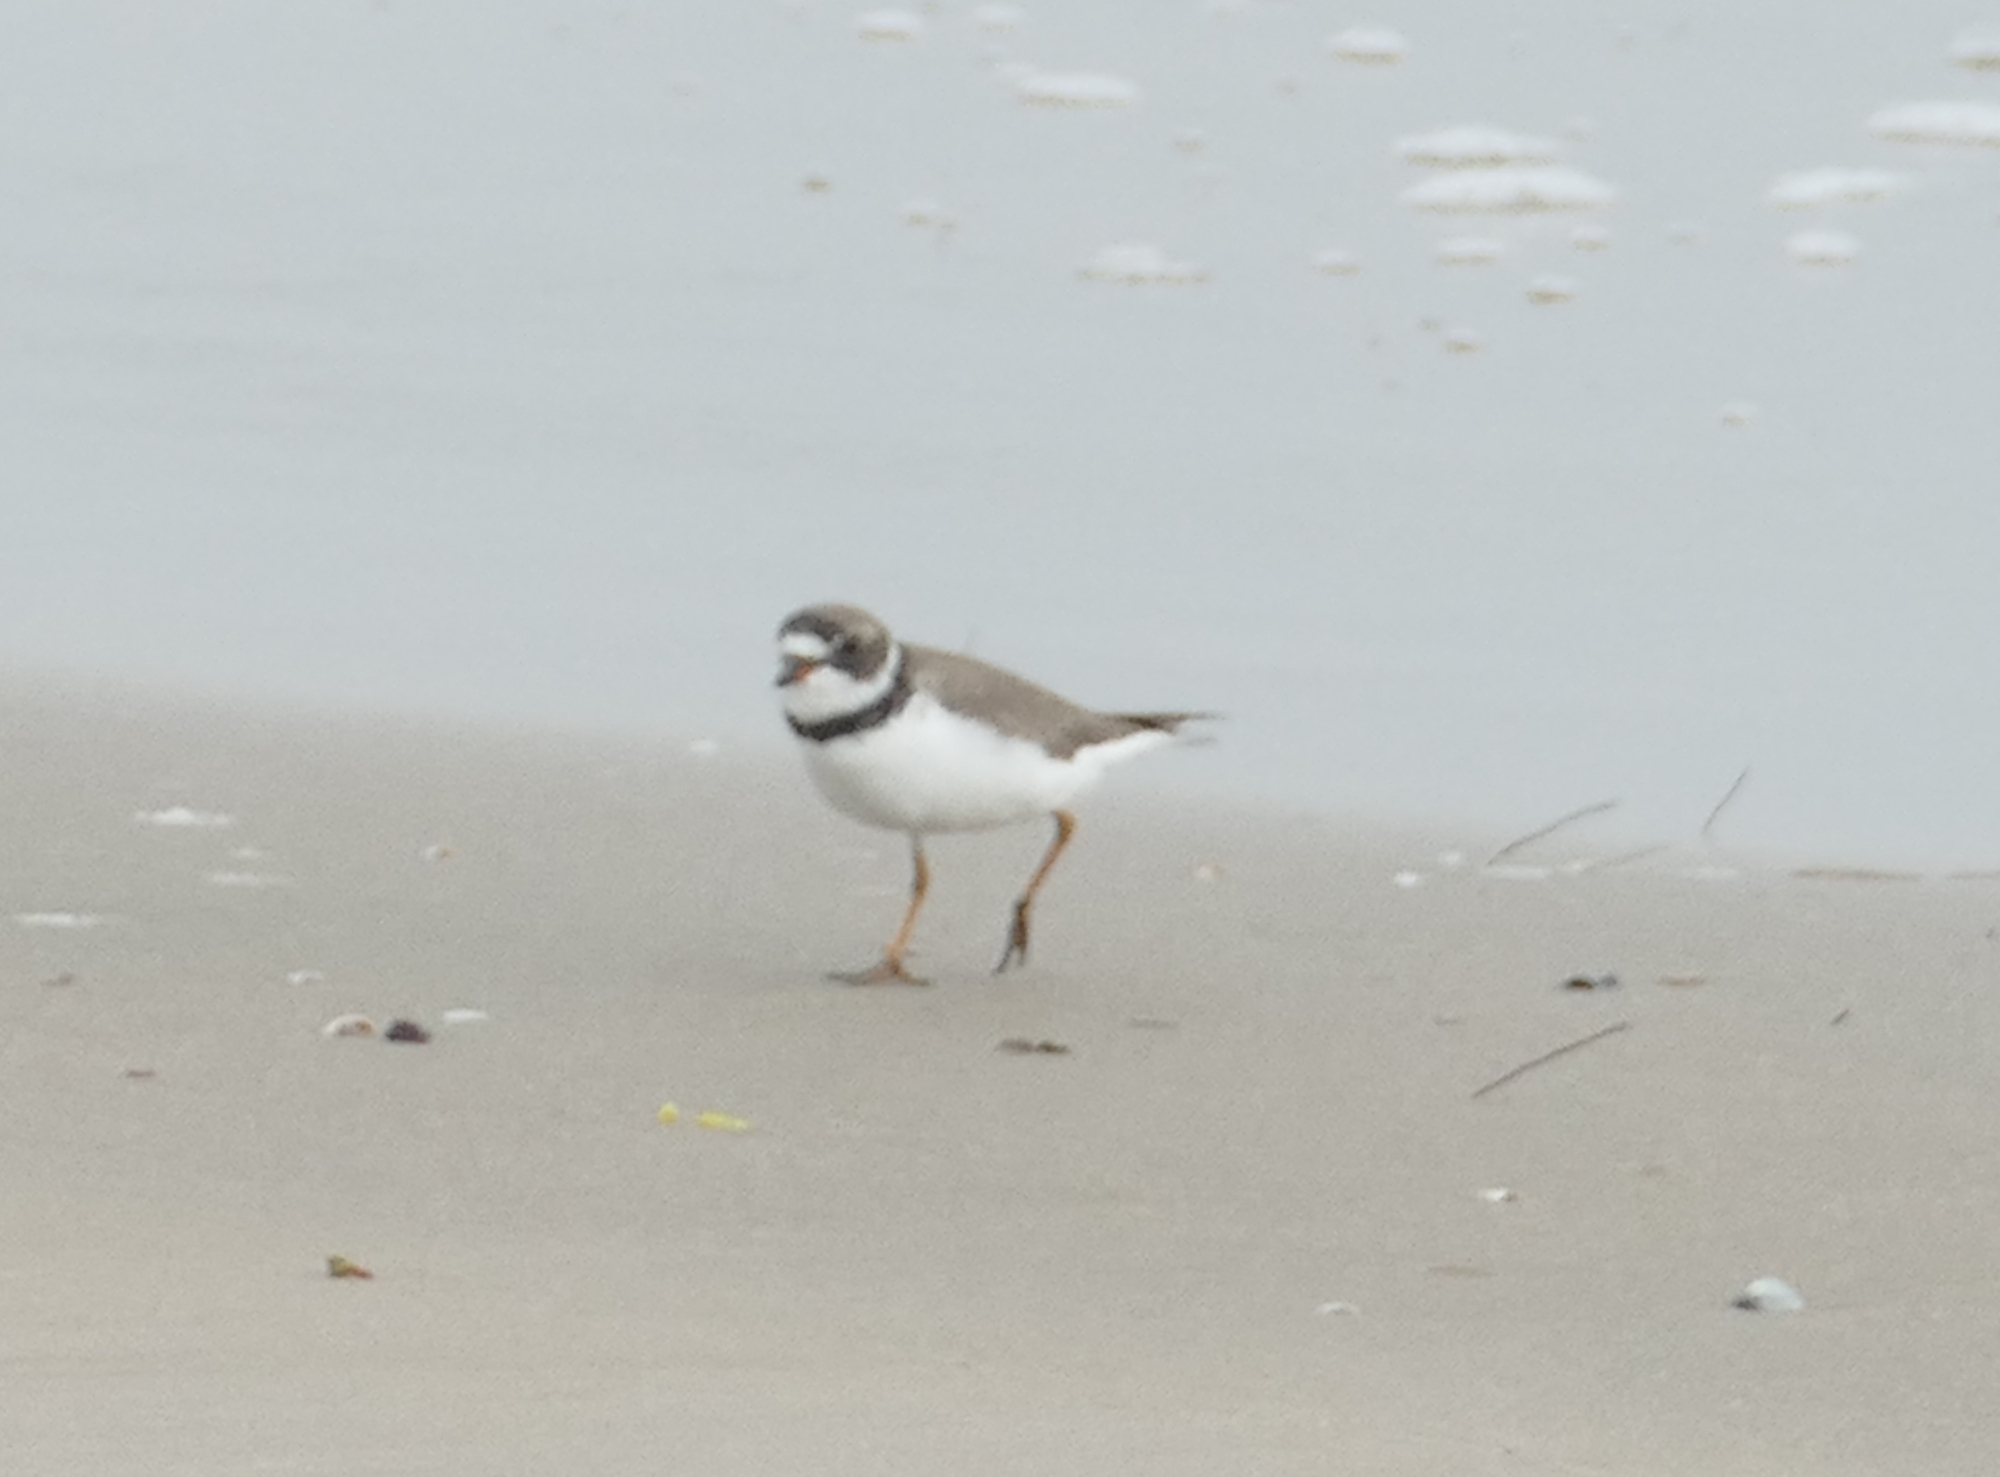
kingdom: Animalia
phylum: Chordata
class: Aves
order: Charadriiformes
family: Charadriidae
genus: Charadrius
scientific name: Charadrius semipalmatus
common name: Semipalmated plover
